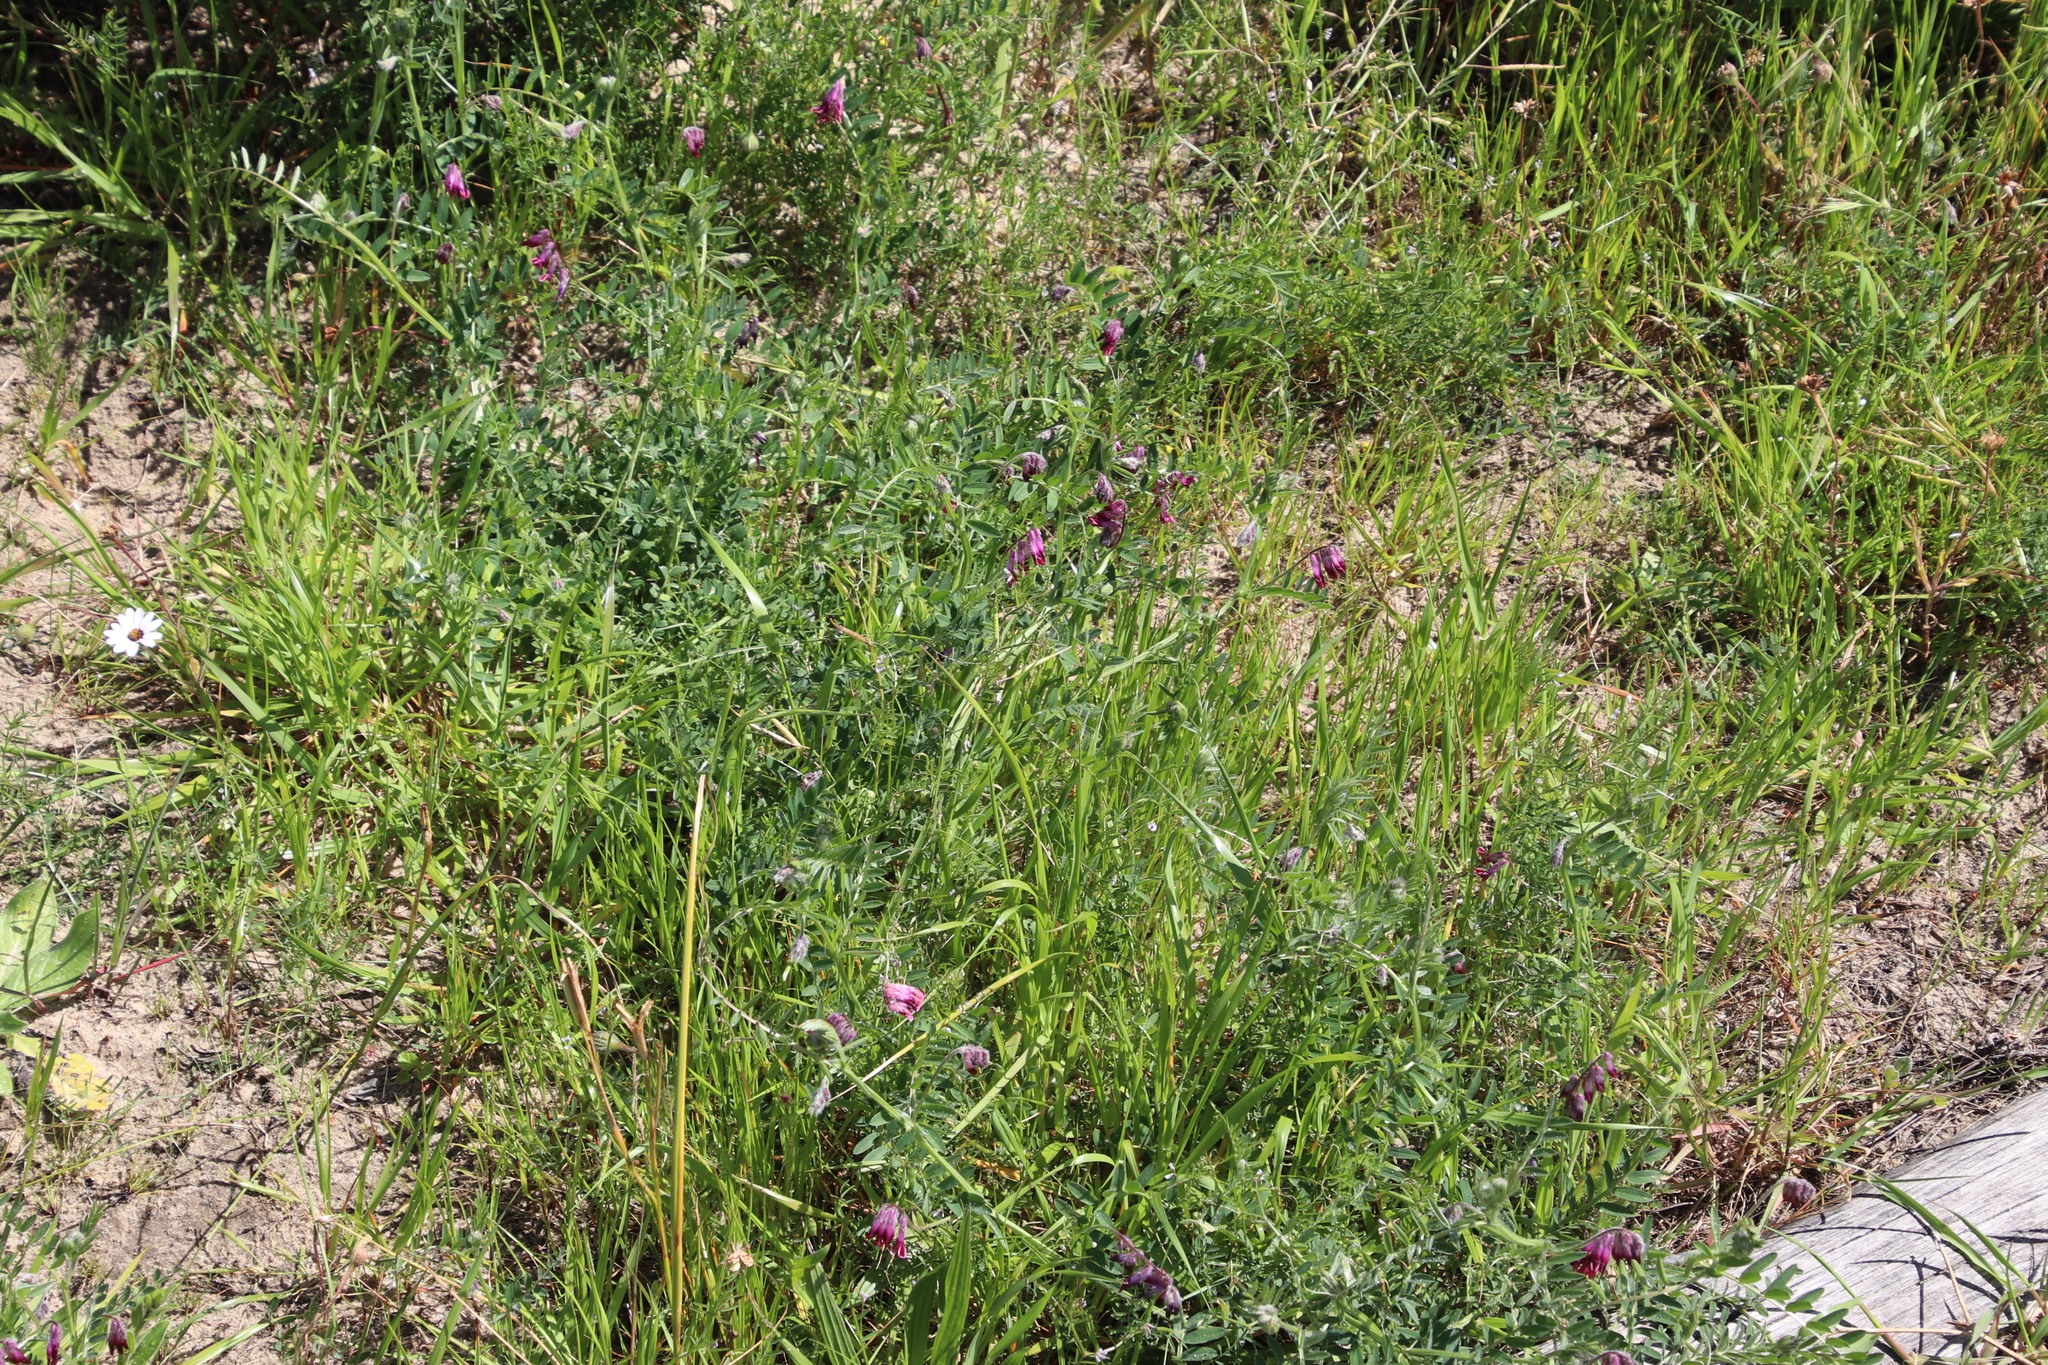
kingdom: Plantae
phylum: Tracheophyta
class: Magnoliopsida
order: Fabales
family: Fabaceae
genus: Vicia
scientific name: Vicia benghalensis
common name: Purple vetch
